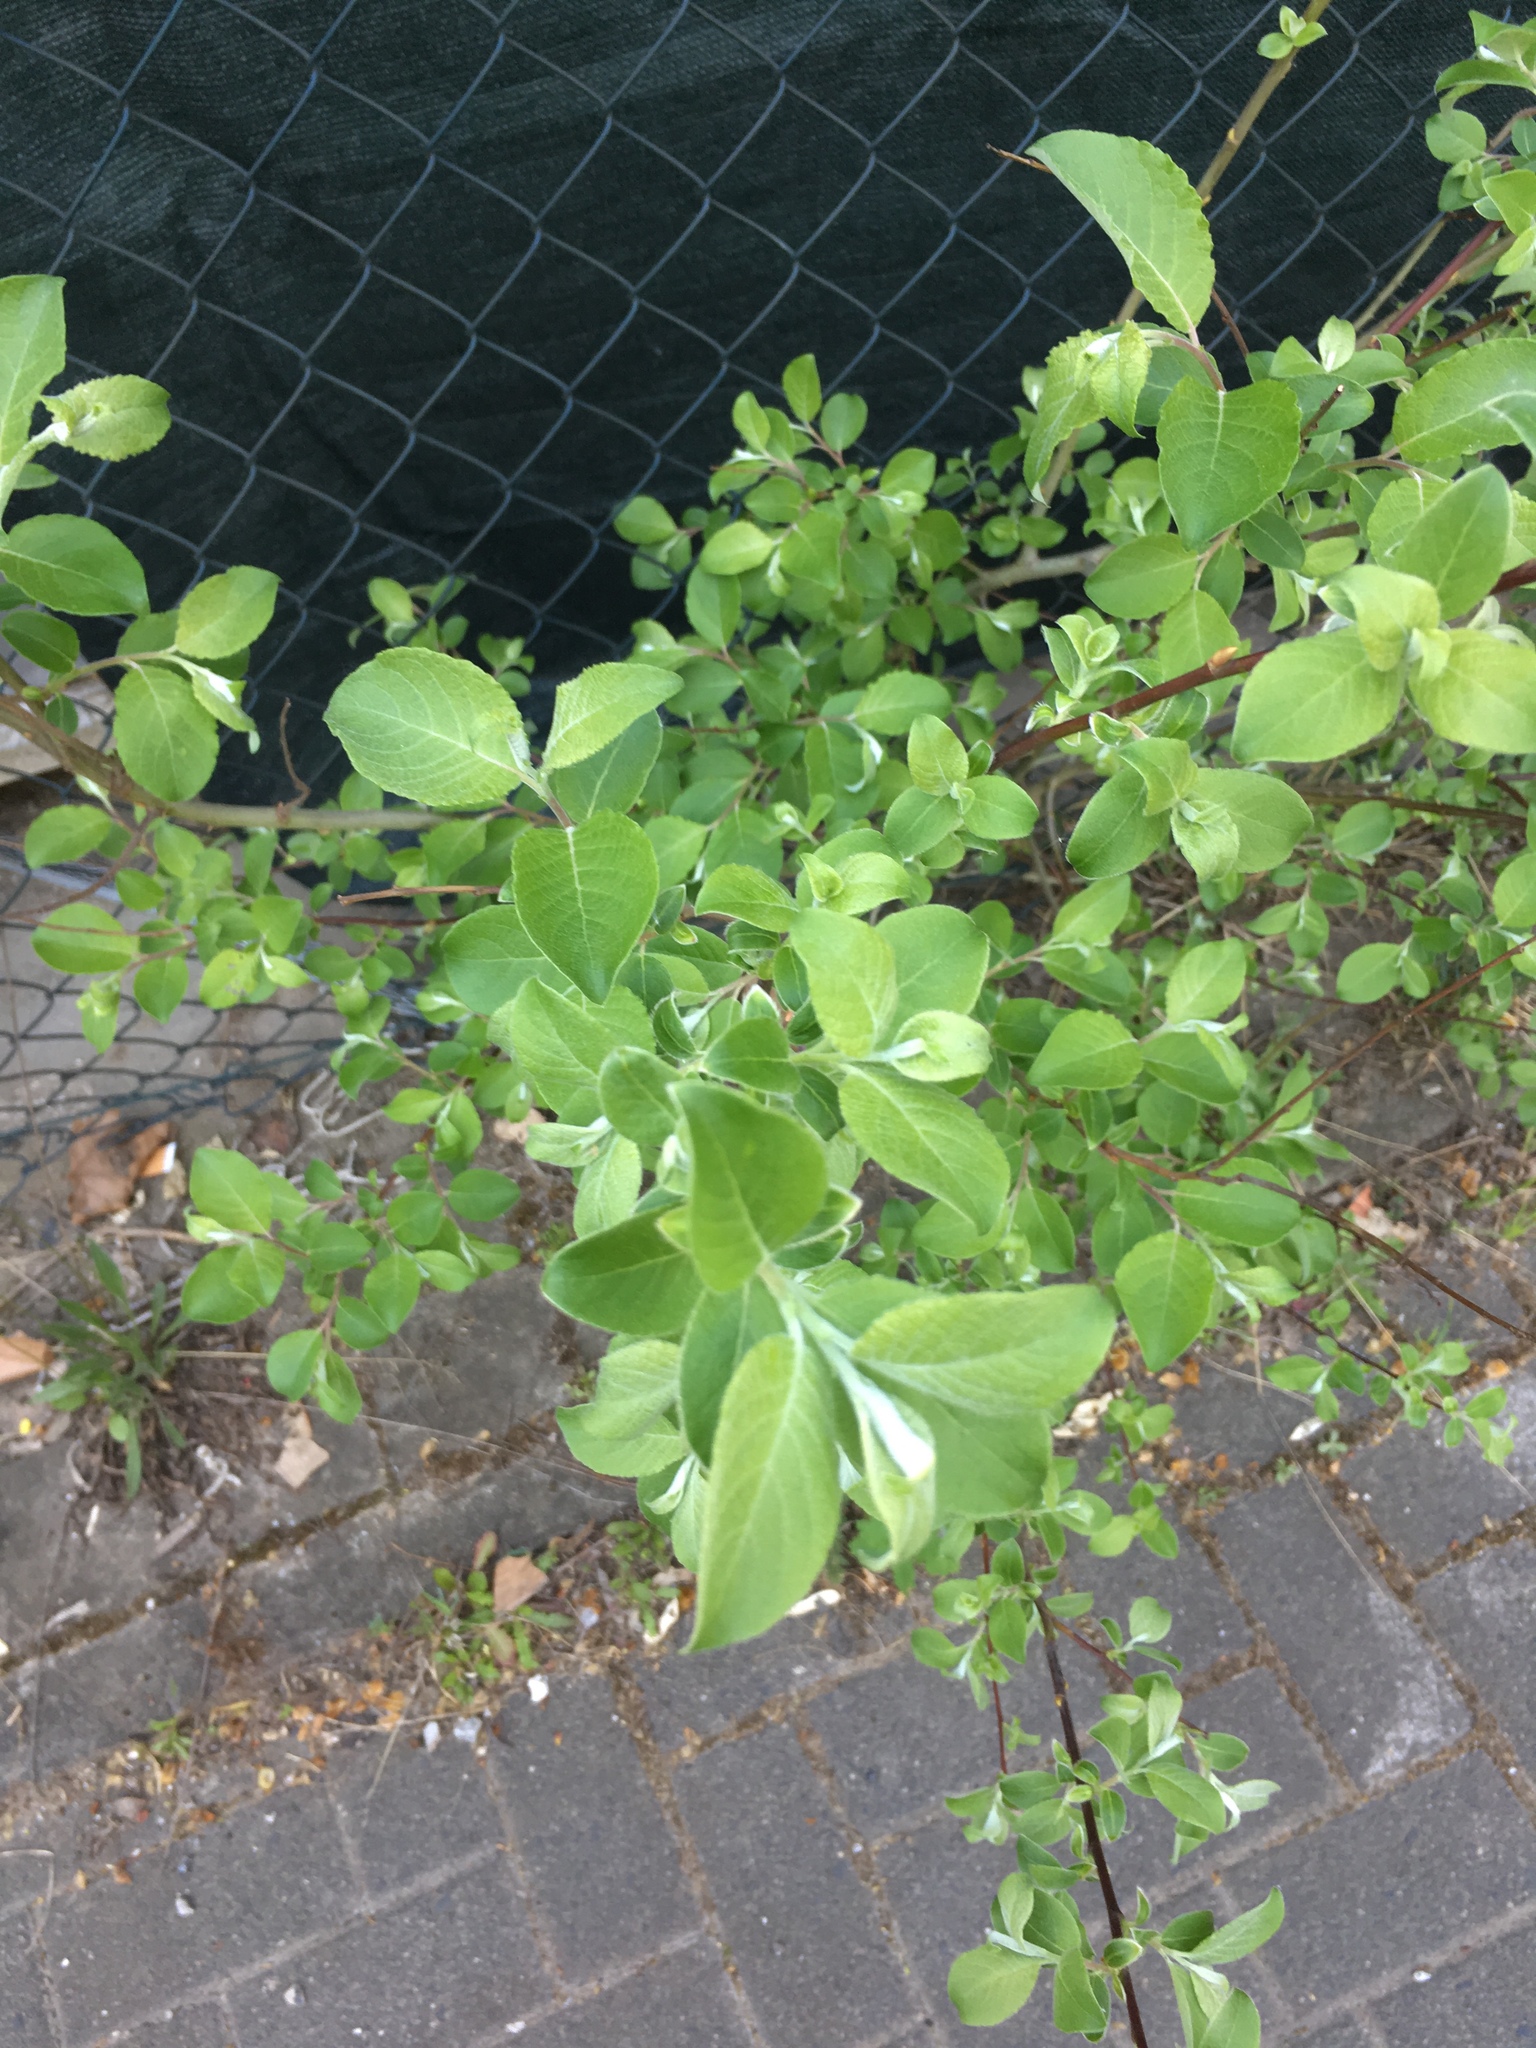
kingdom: Plantae
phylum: Tracheophyta
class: Magnoliopsida
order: Malpighiales
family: Salicaceae
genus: Salix
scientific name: Salix caprea
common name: Goat willow
